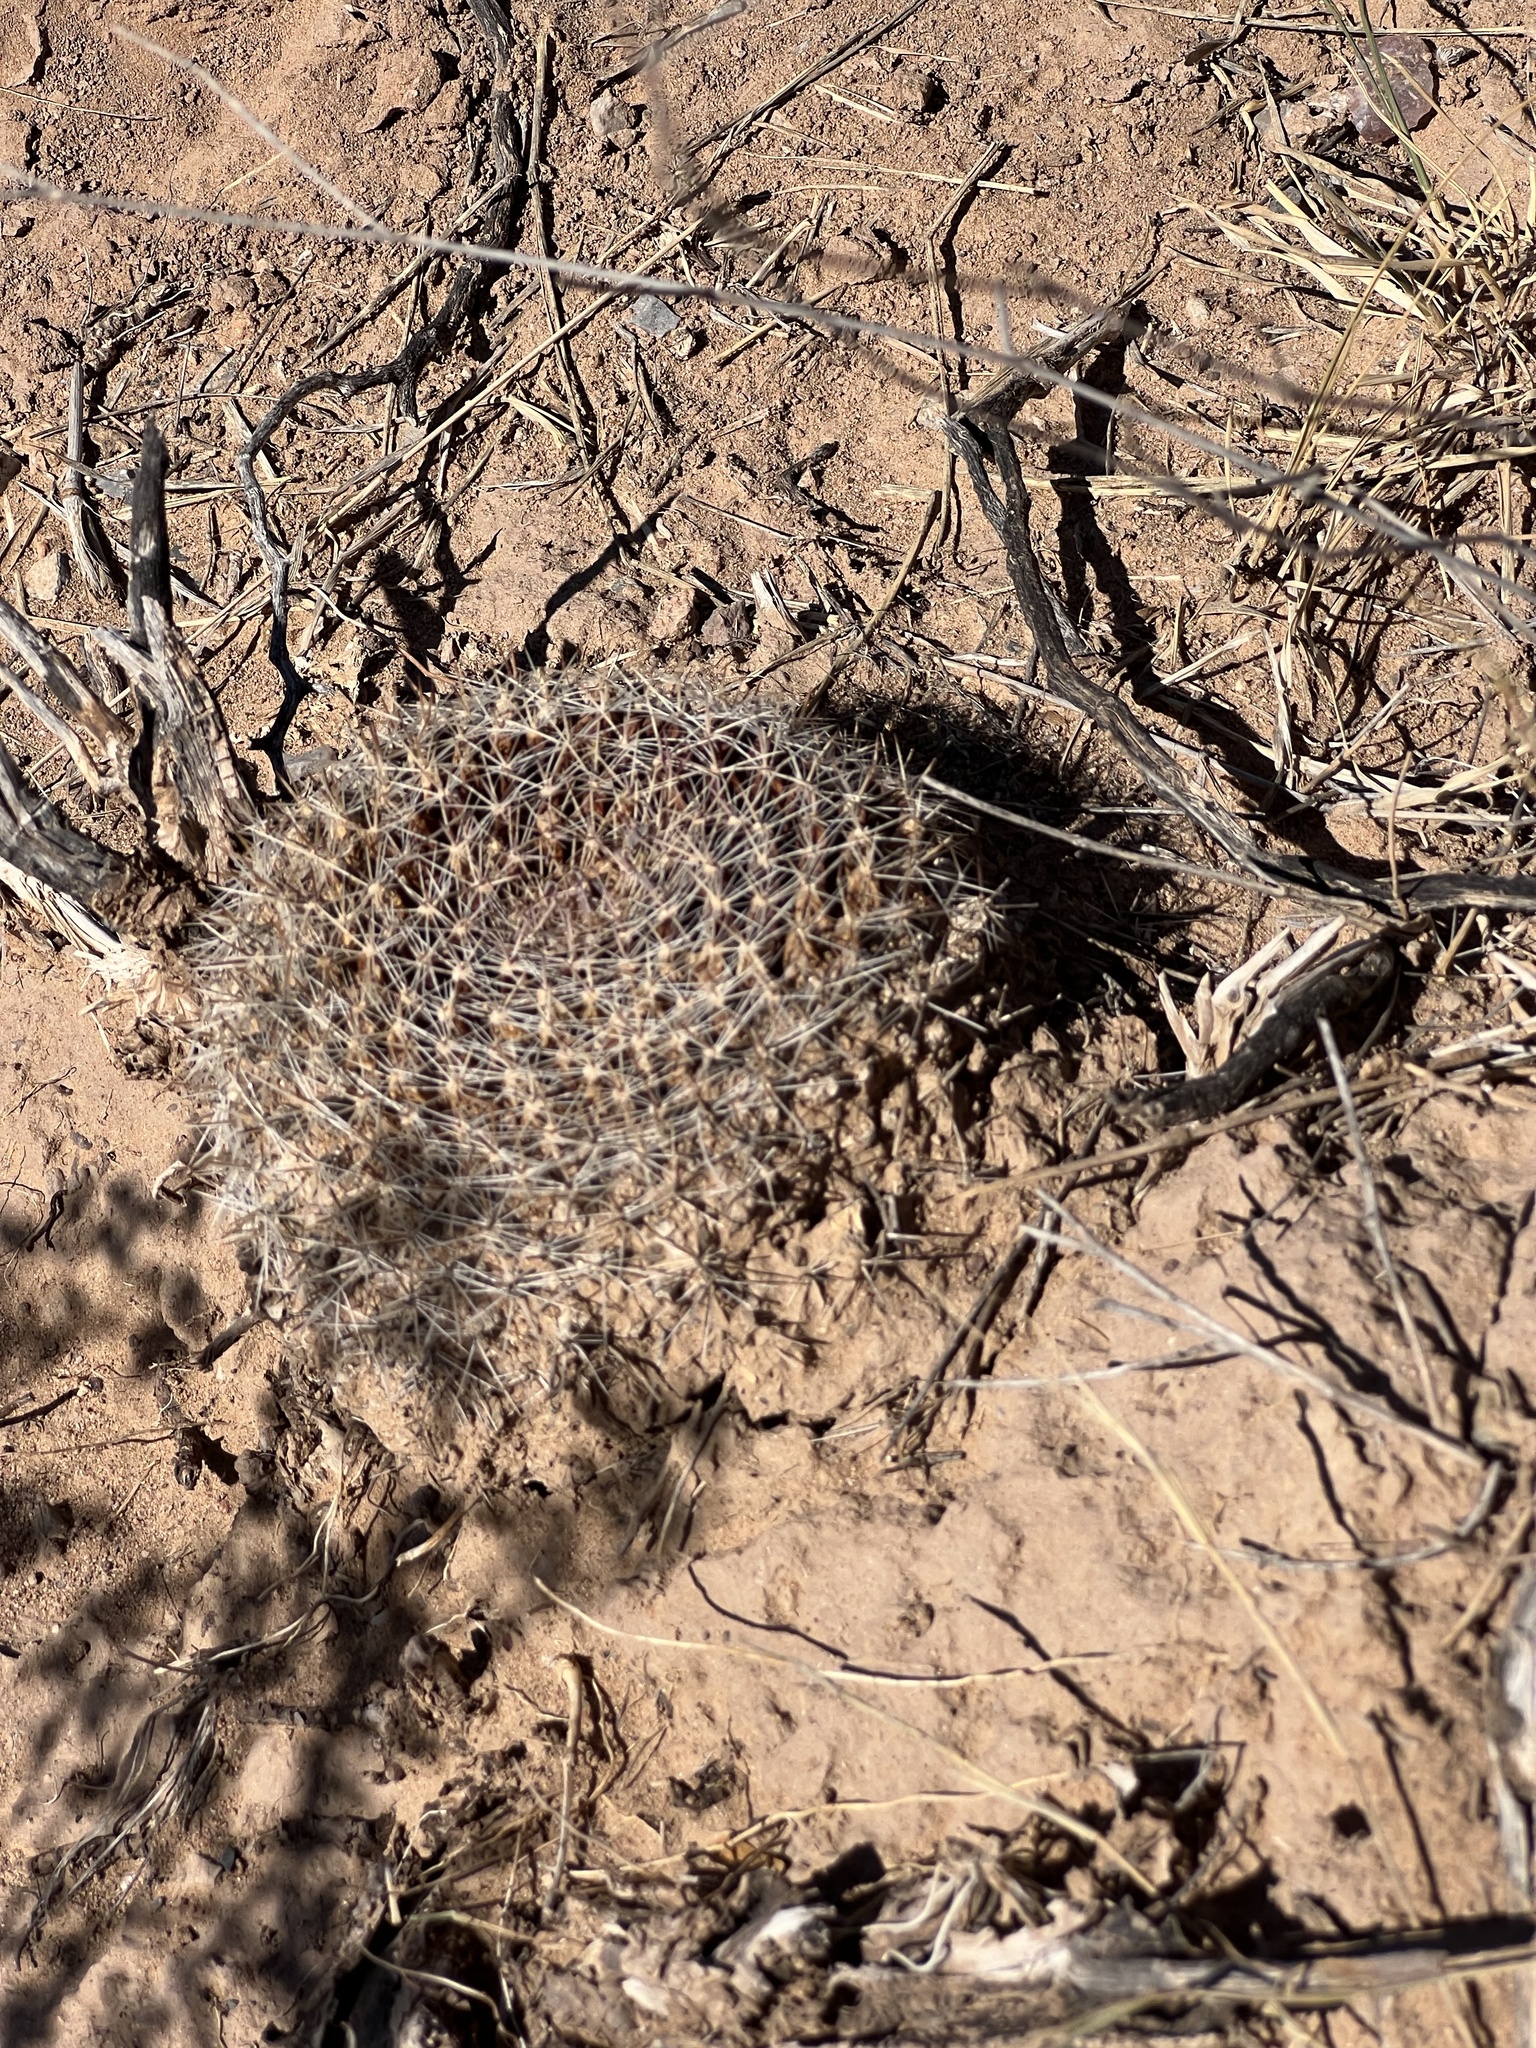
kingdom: Plantae
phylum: Tracheophyta
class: Magnoliopsida
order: Caryophyllales
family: Cactaceae
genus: Mammillaria
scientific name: Mammillaria heyderi
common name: Little nipple cactus
